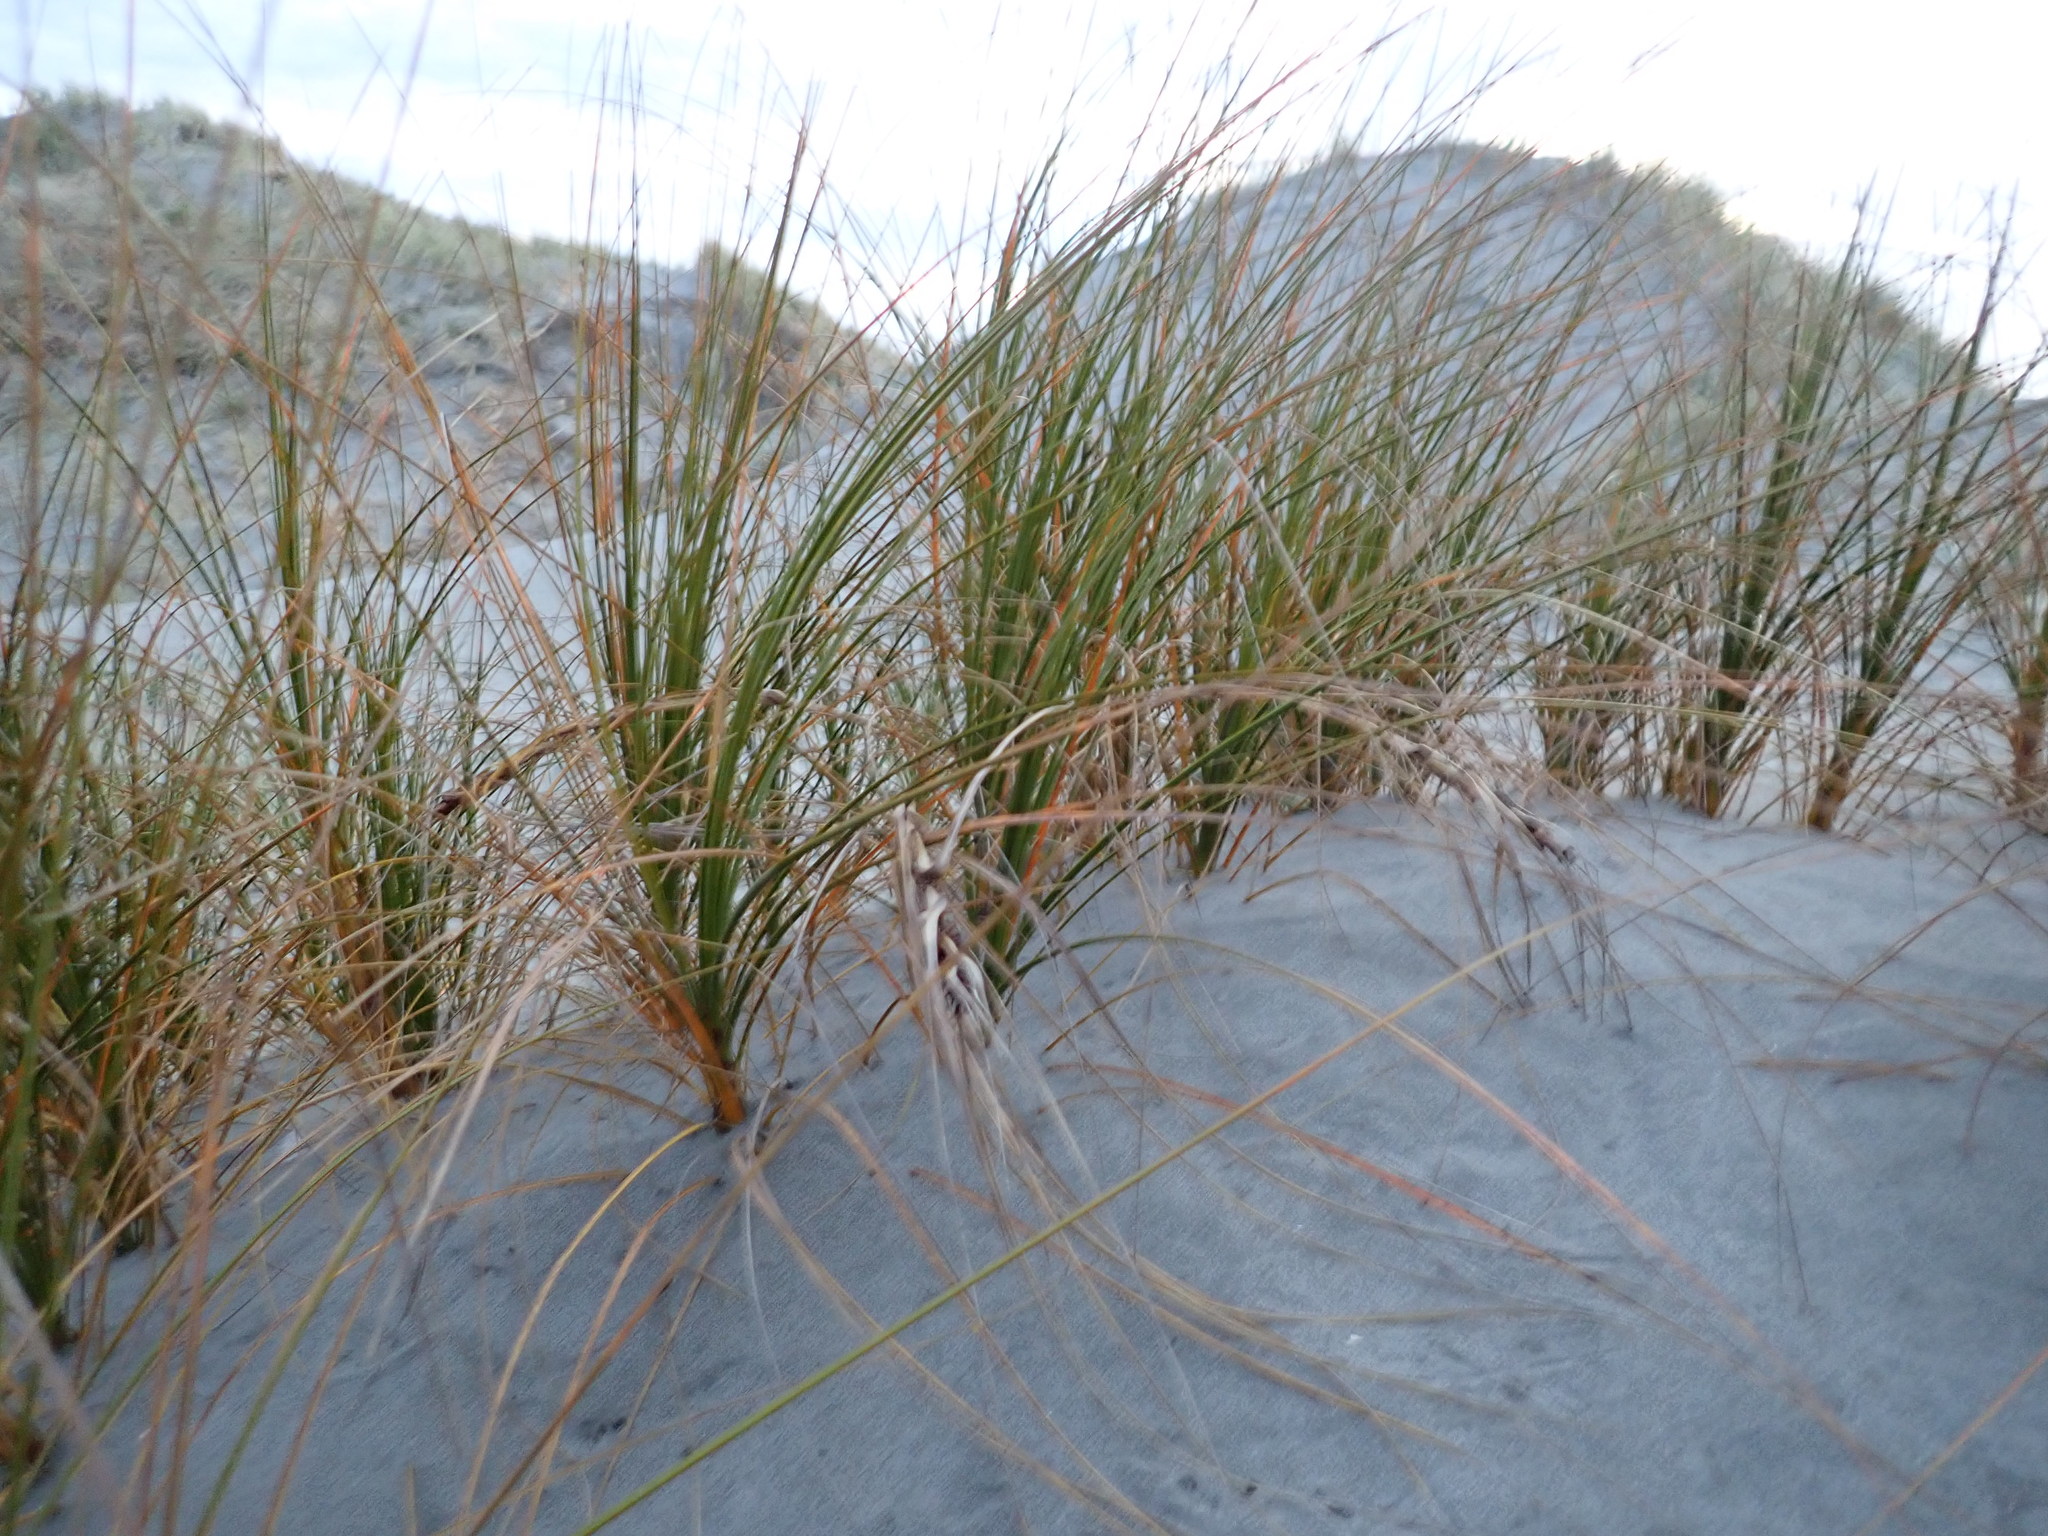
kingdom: Plantae
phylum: Tracheophyta
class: Liliopsida
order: Poales
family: Cyperaceae
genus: Ficinia
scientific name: Ficinia spiralis
